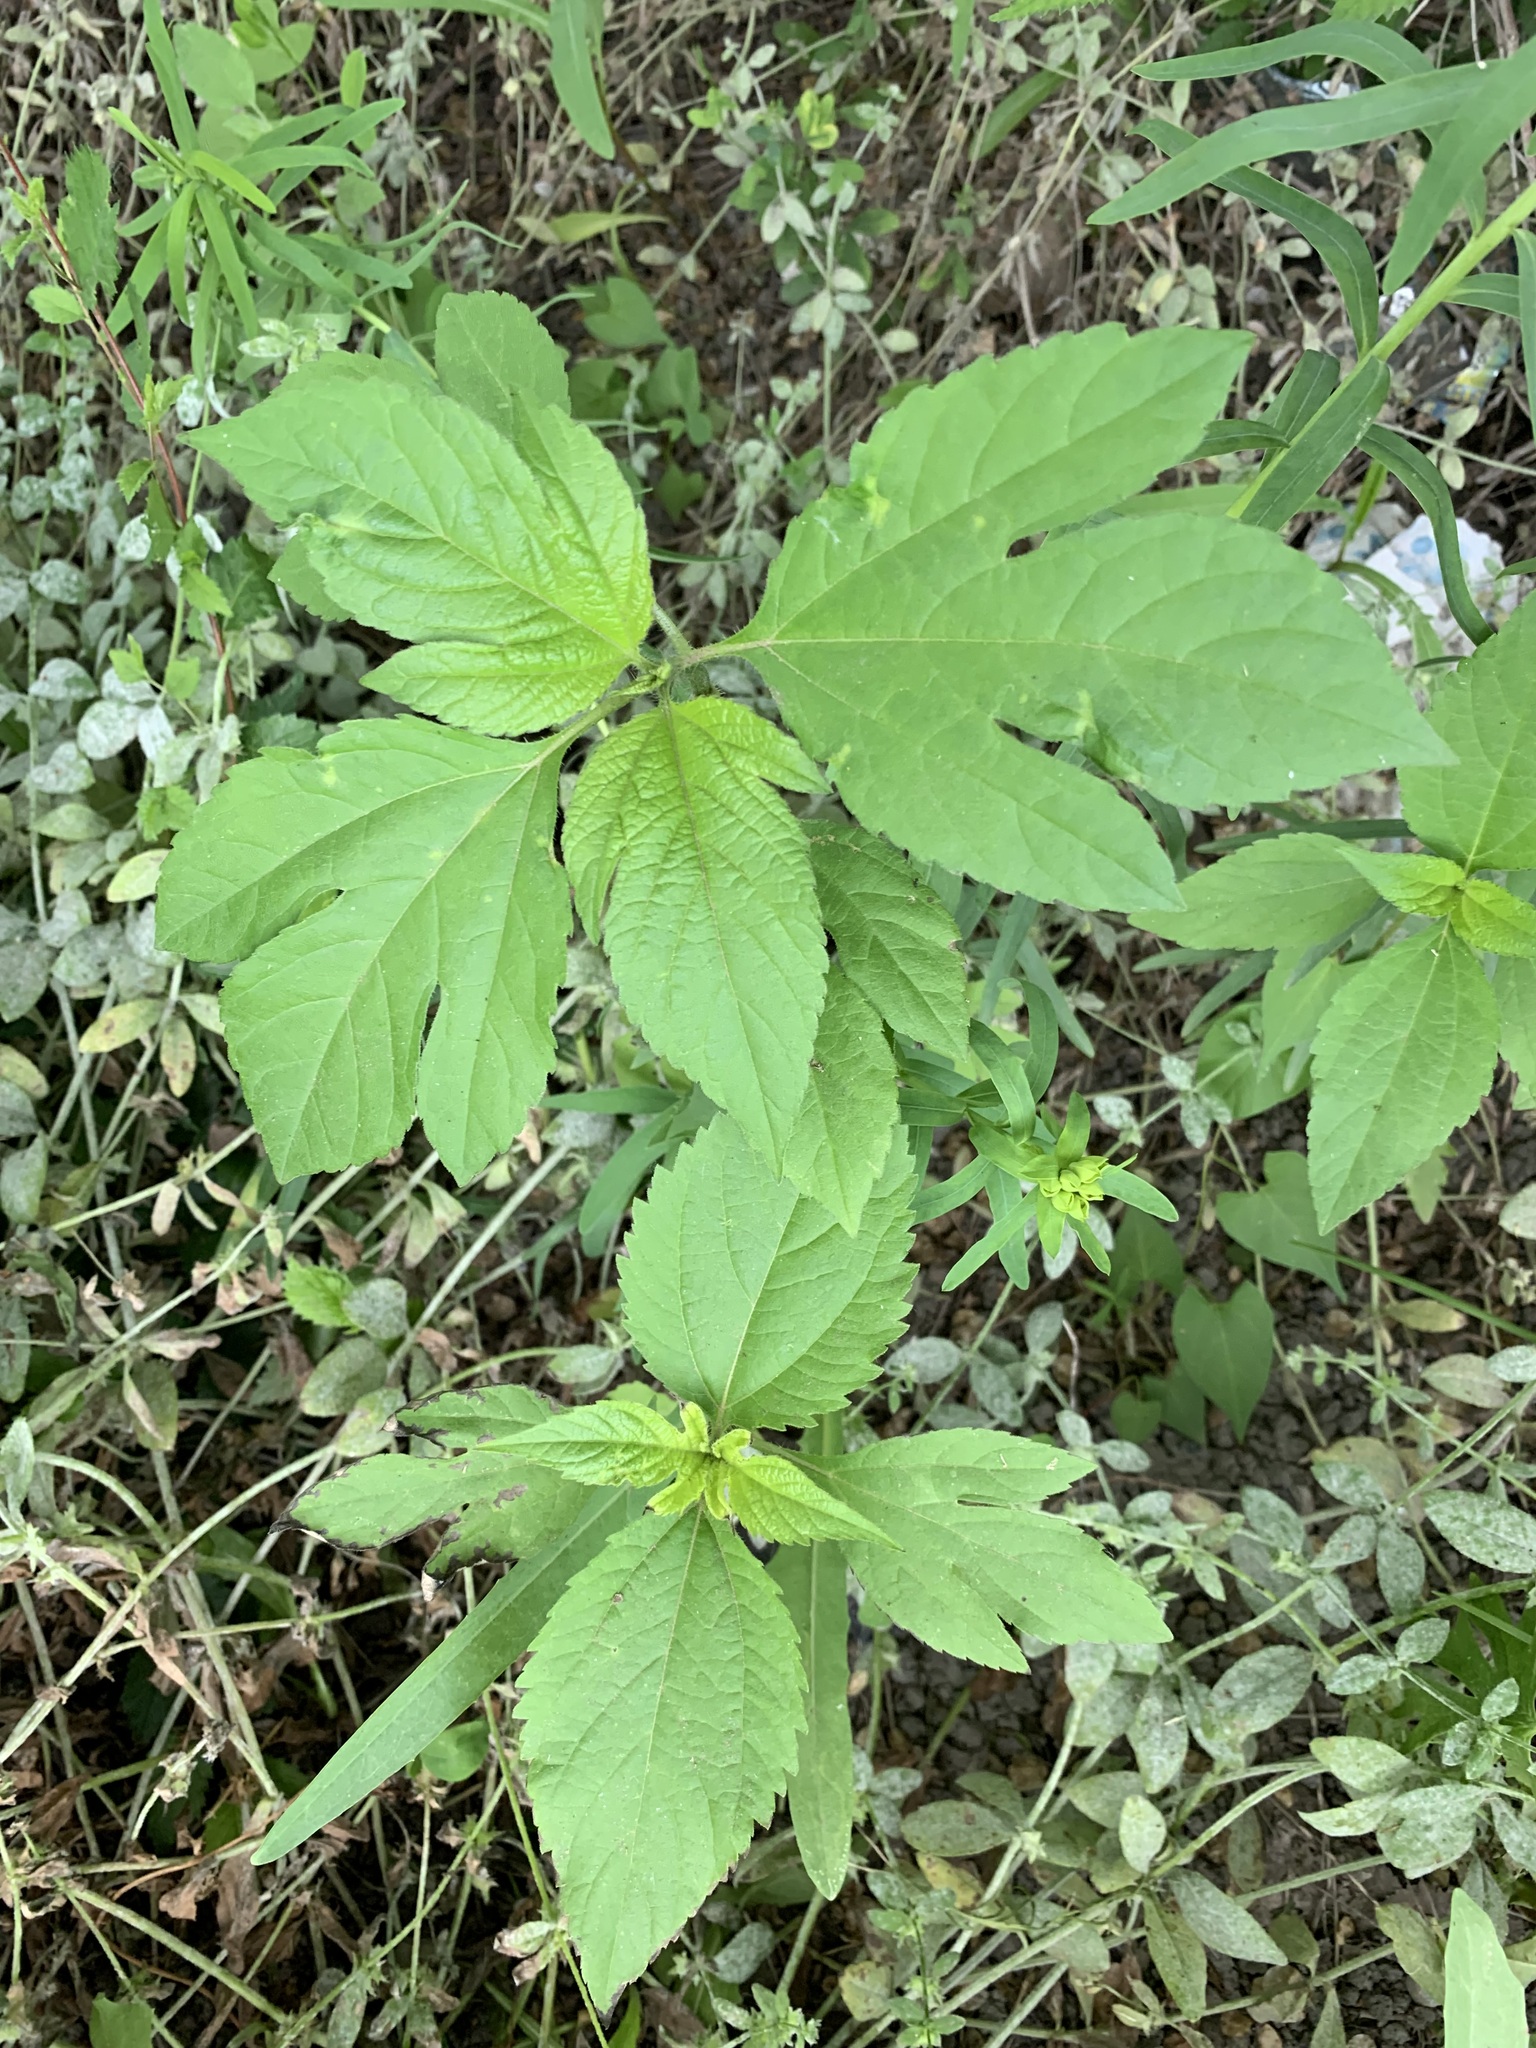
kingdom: Plantae
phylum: Tracheophyta
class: Magnoliopsida
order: Asterales
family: Asteraceae
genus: Ambrosia
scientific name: Ambrosia trifida
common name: Giant ragweed
